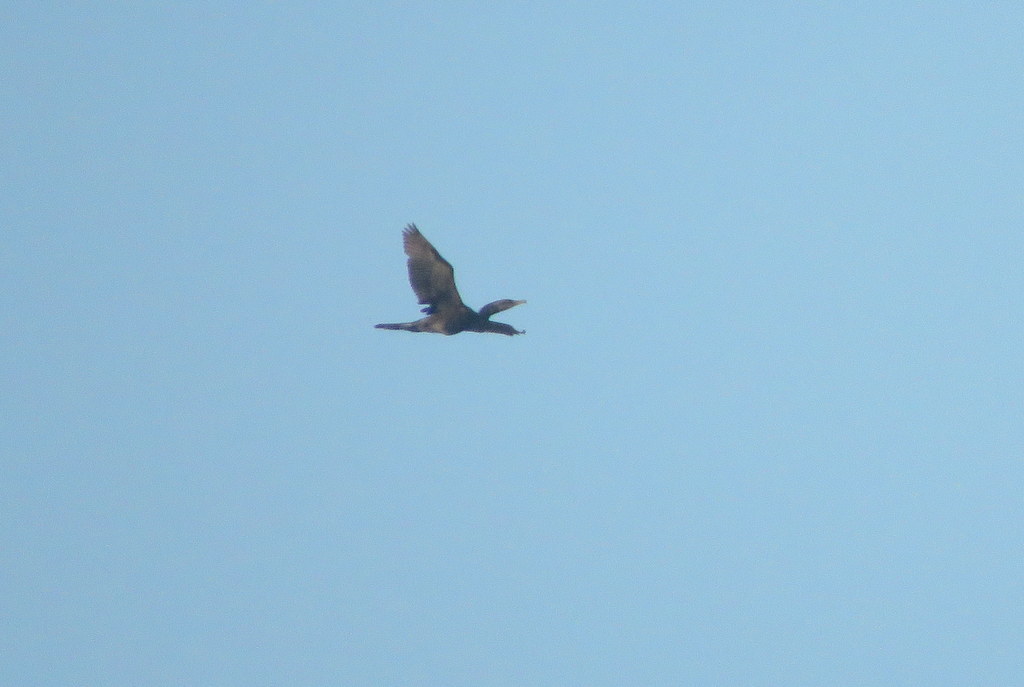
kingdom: Animalia
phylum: Chordata
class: Aves
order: Suliformes
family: Phalacrocoracidae
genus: Phalacrocorax
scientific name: Phalacrocorax brasilianus
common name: Neotropic cormorant
